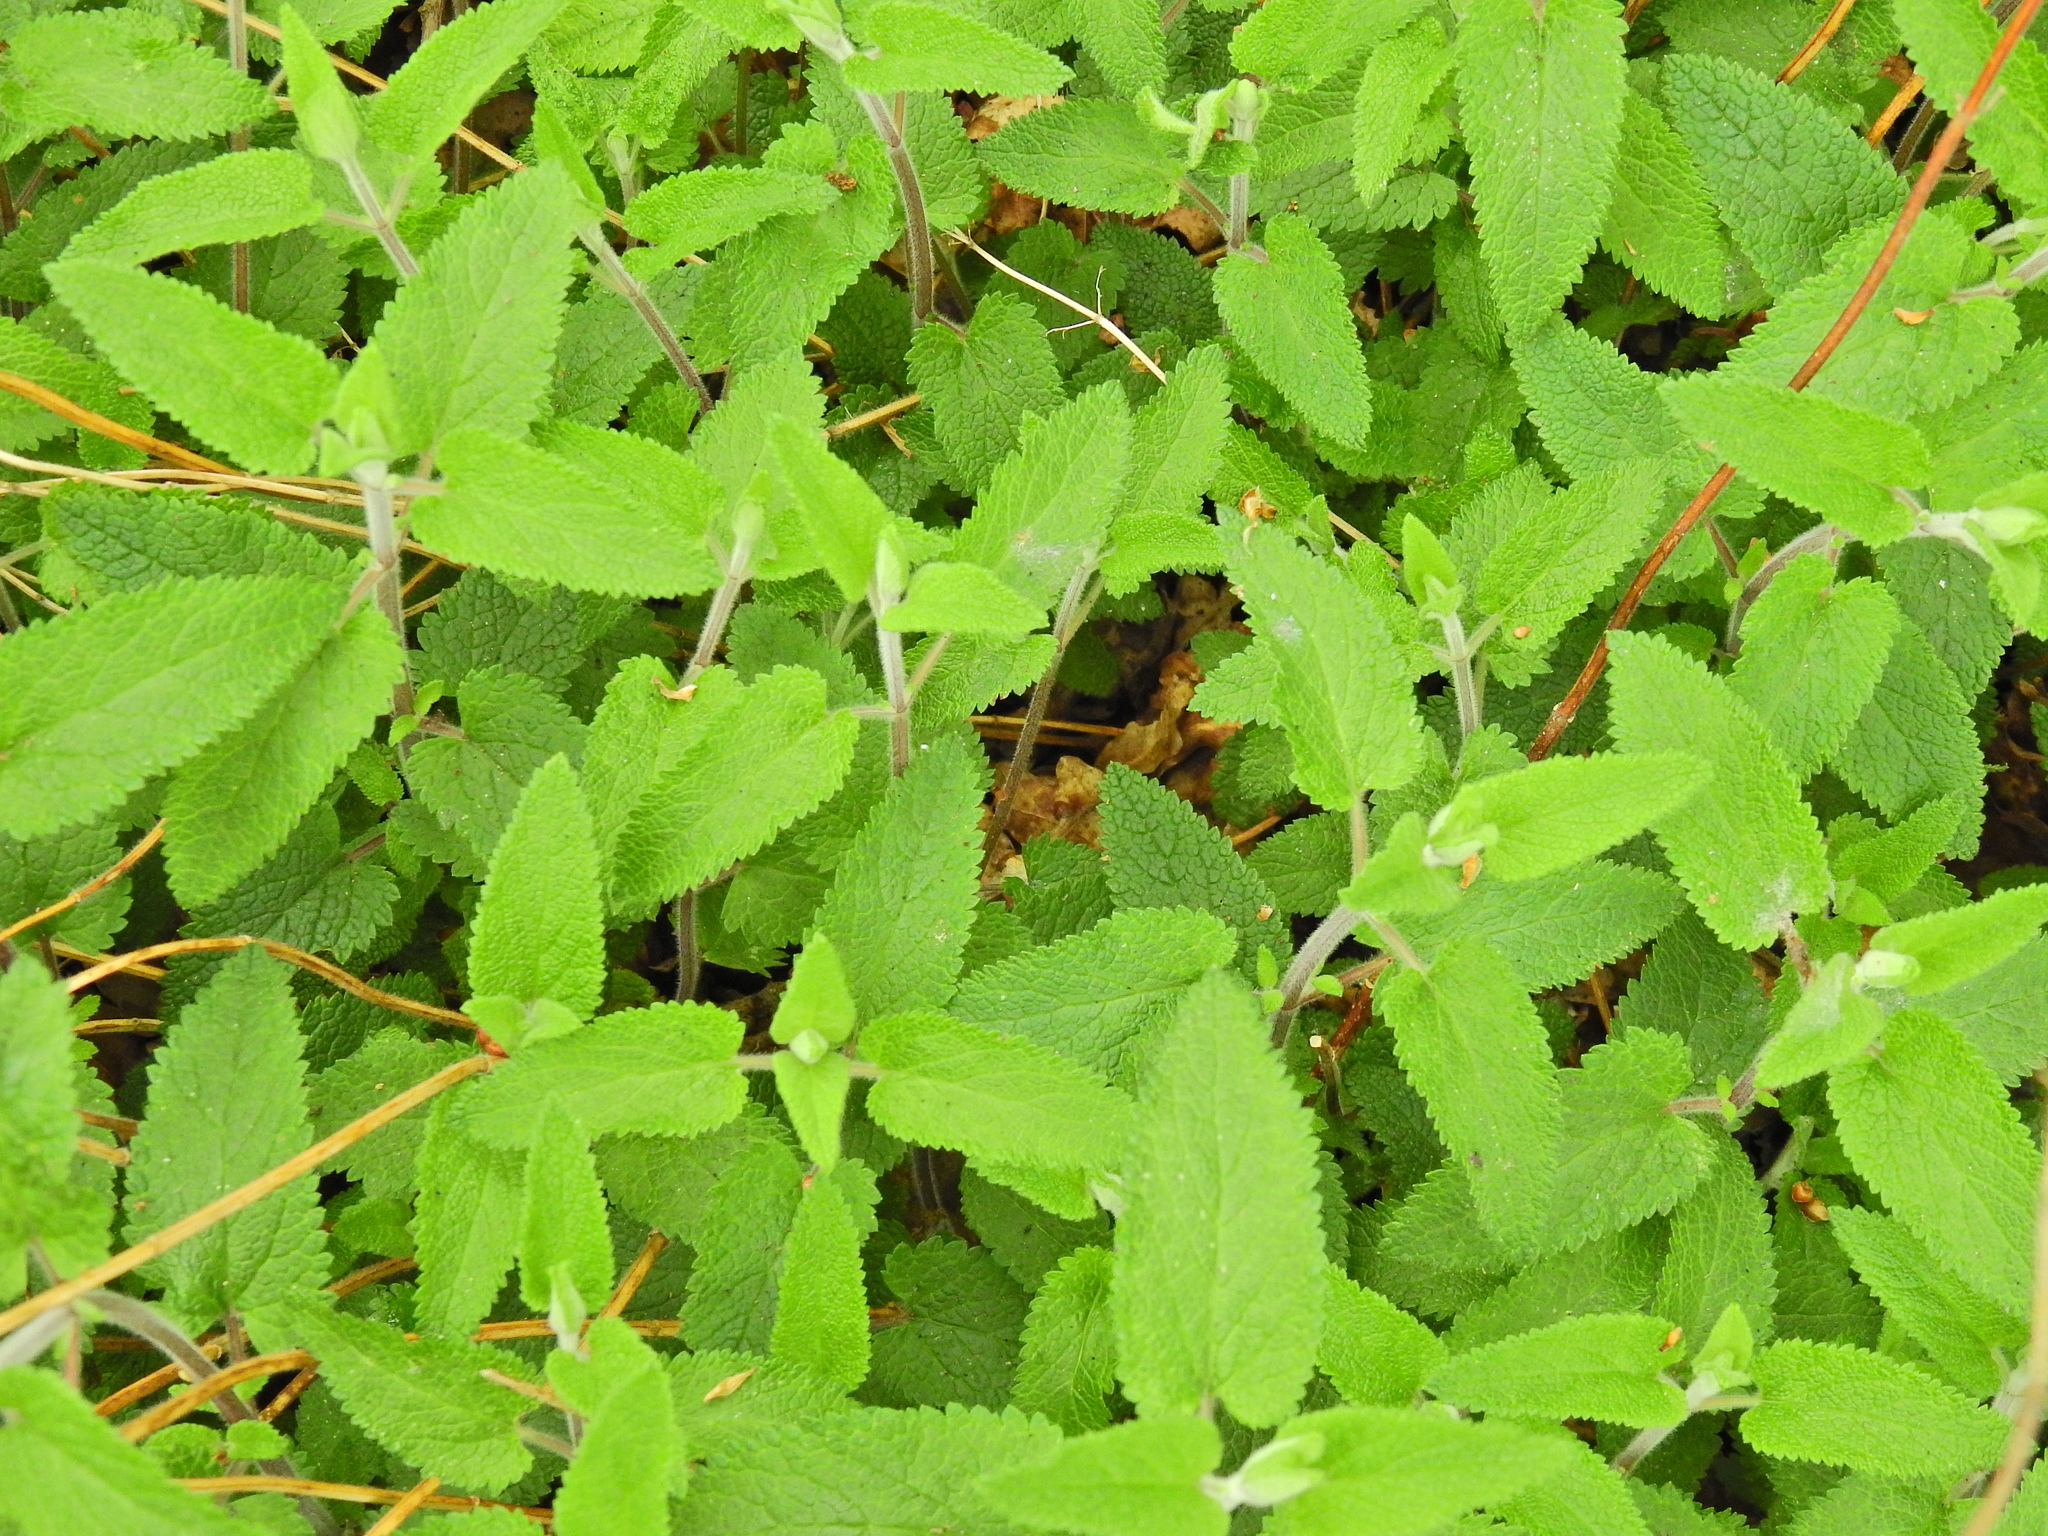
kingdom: Plantae
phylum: Tracheophyta
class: Magnoliopsida
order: Lamiales
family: Lamiaceae
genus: Teucrium
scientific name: Teucrium scorodonia
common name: Woodland germander
